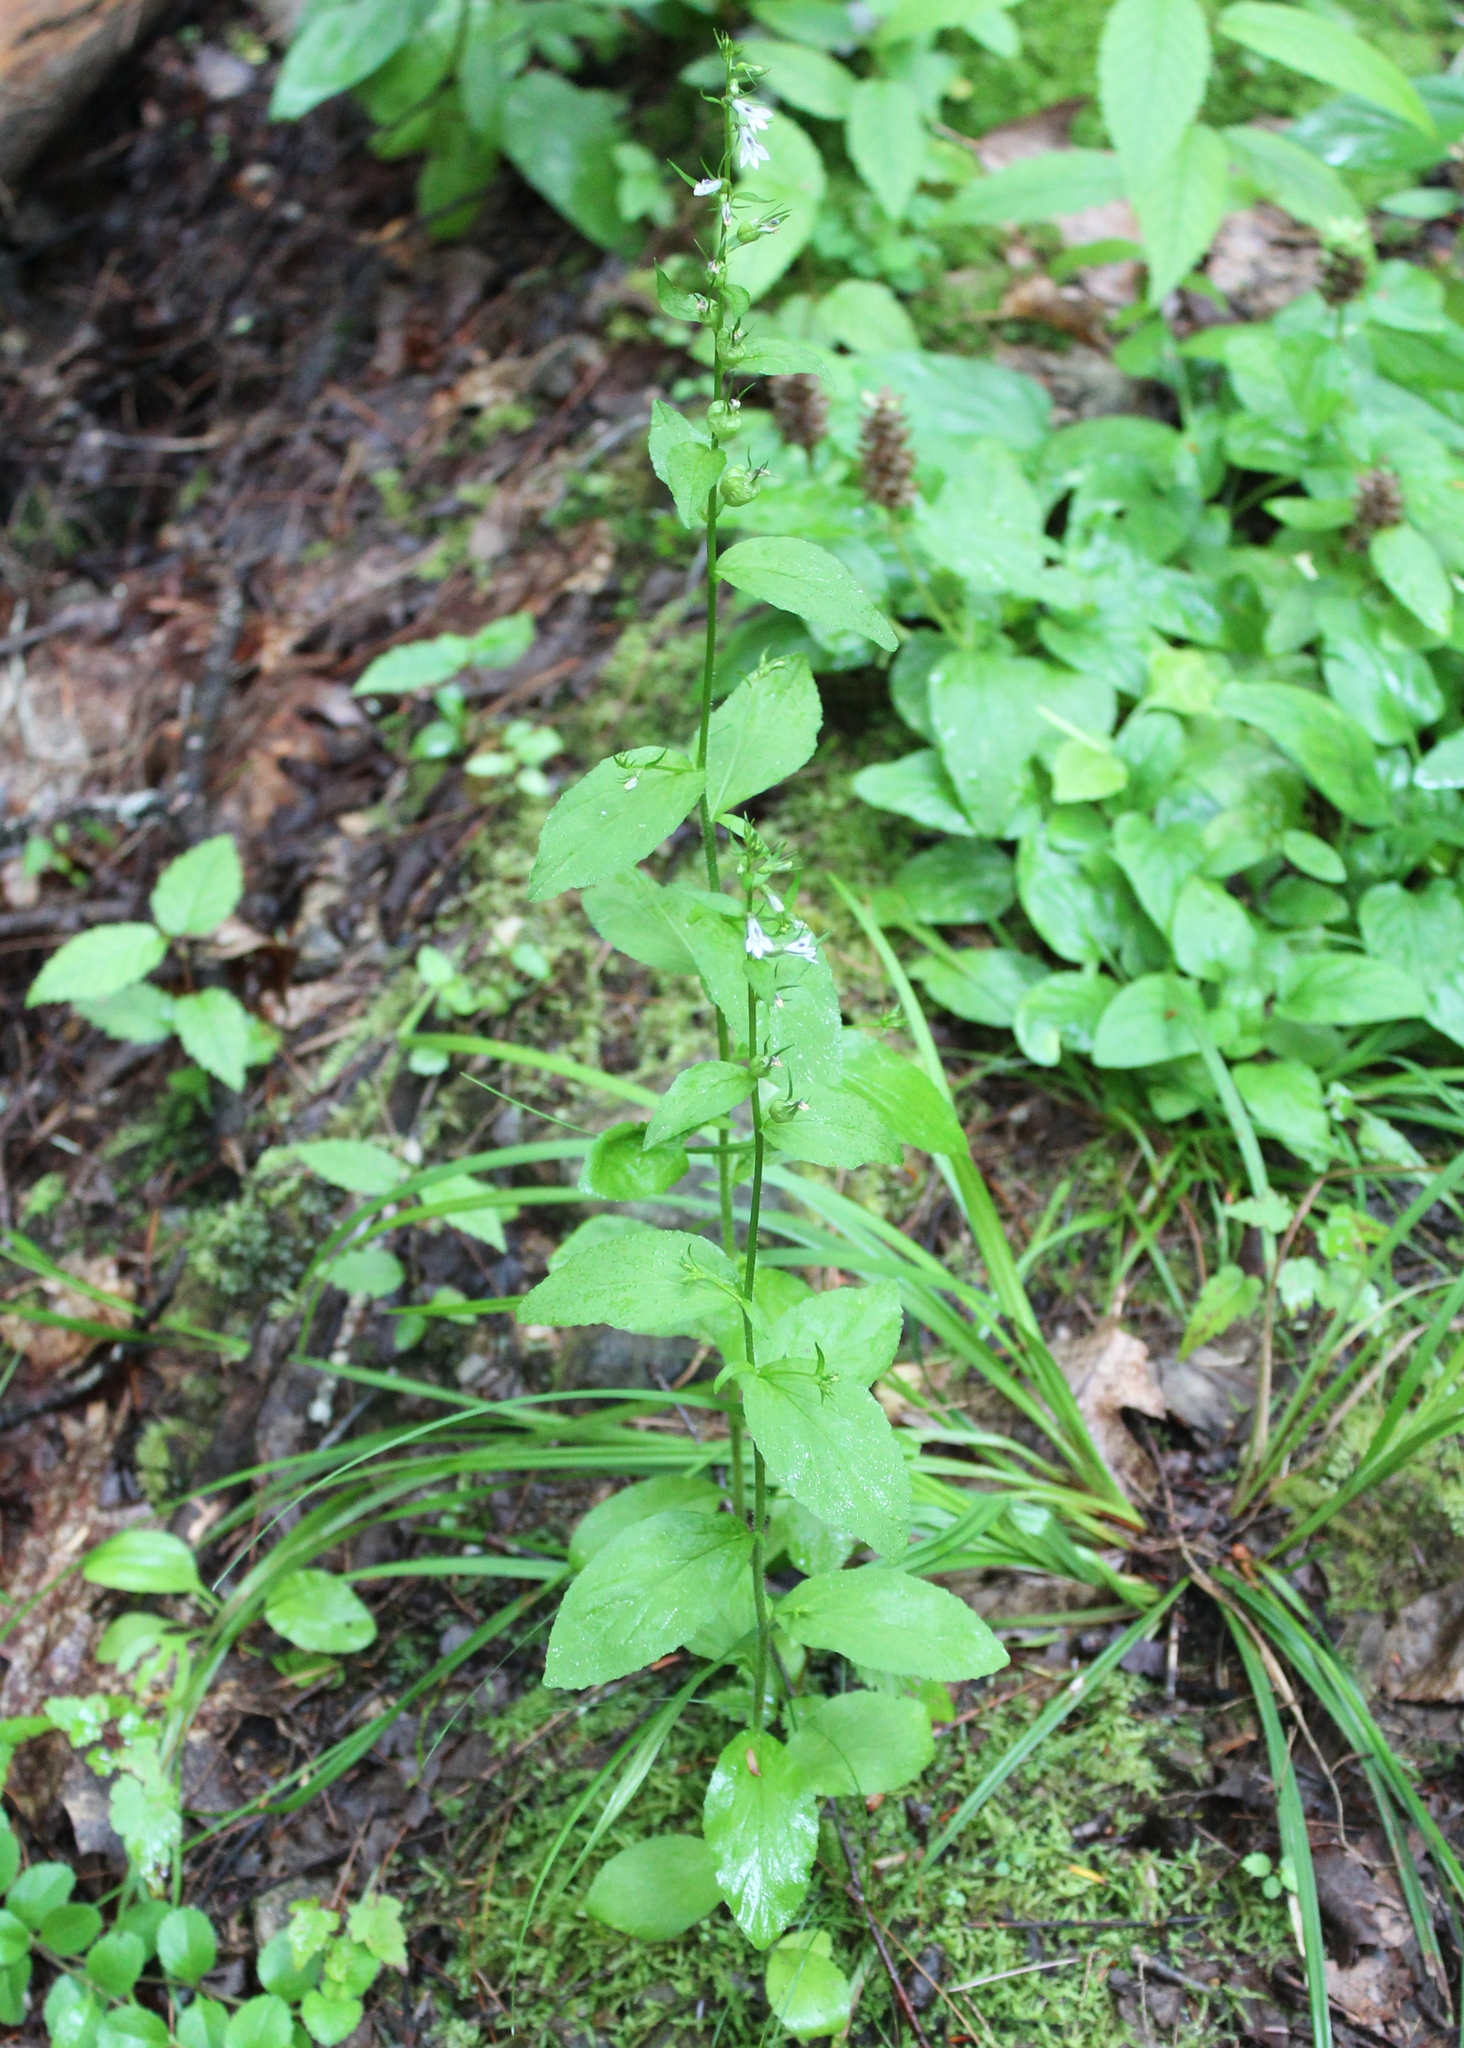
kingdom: Plantae
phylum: Tracheophyta
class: Magnoliopsida
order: Asterales
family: Campanulaceae
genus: Lobelia
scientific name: Lobelia inflata
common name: Indian tobacco
